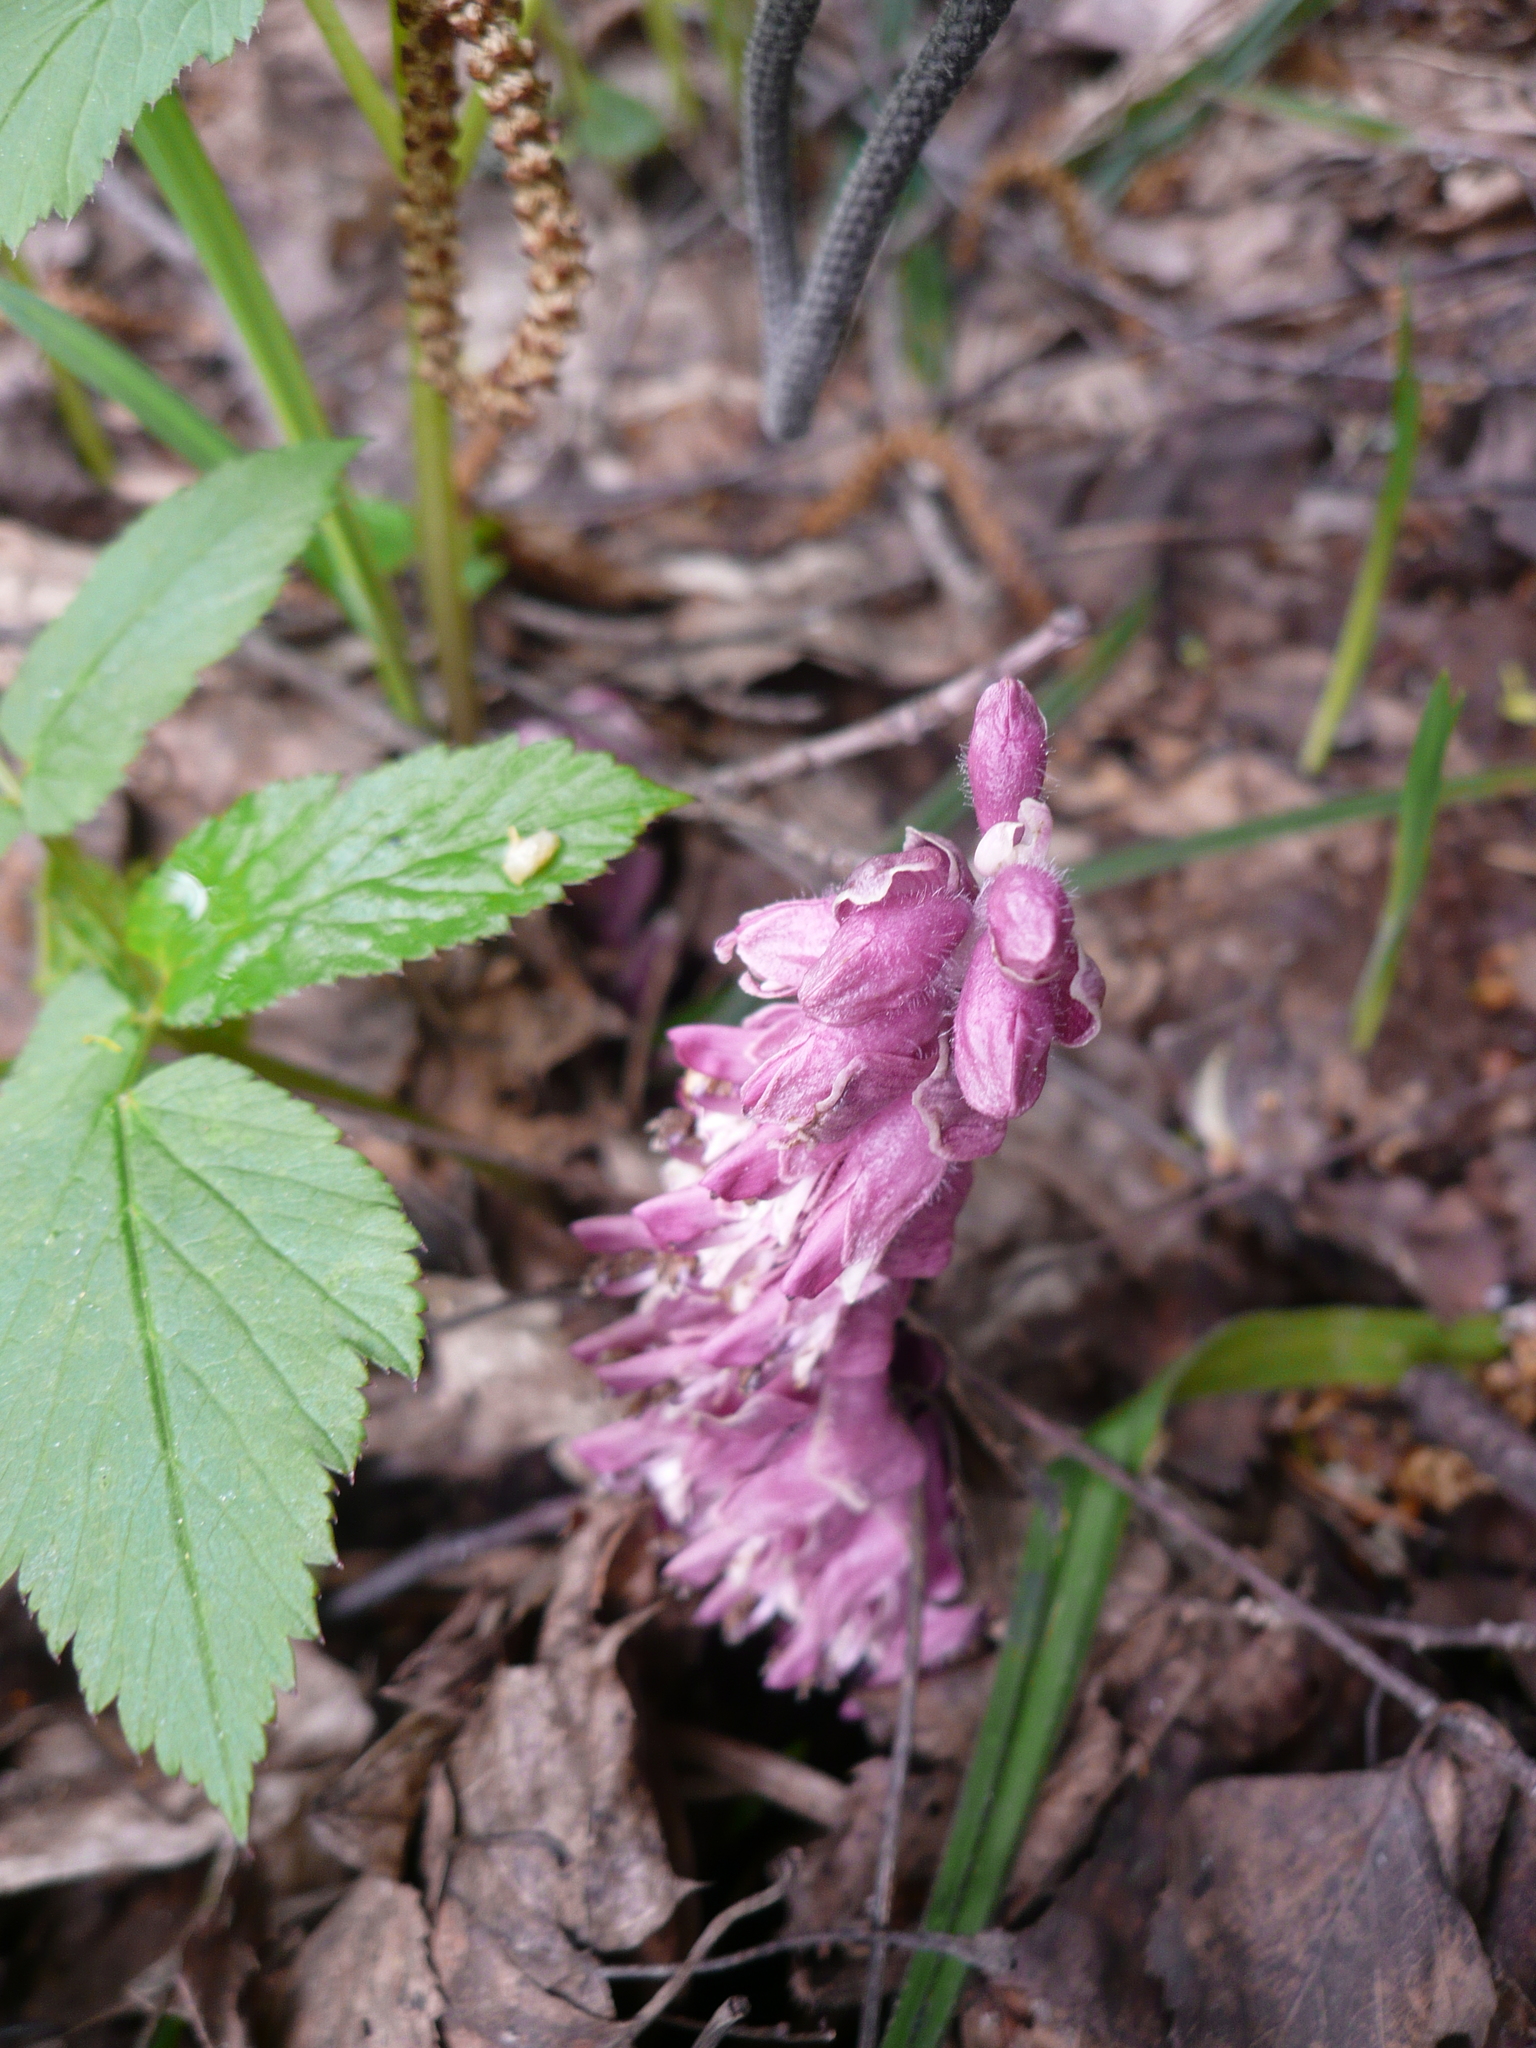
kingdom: Plantae
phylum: Tracheophyta
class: Magnoliopsida
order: Lamiales
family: Orobanchaceae
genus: Lathraea
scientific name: Lathraea squamaria
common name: Toothwort
